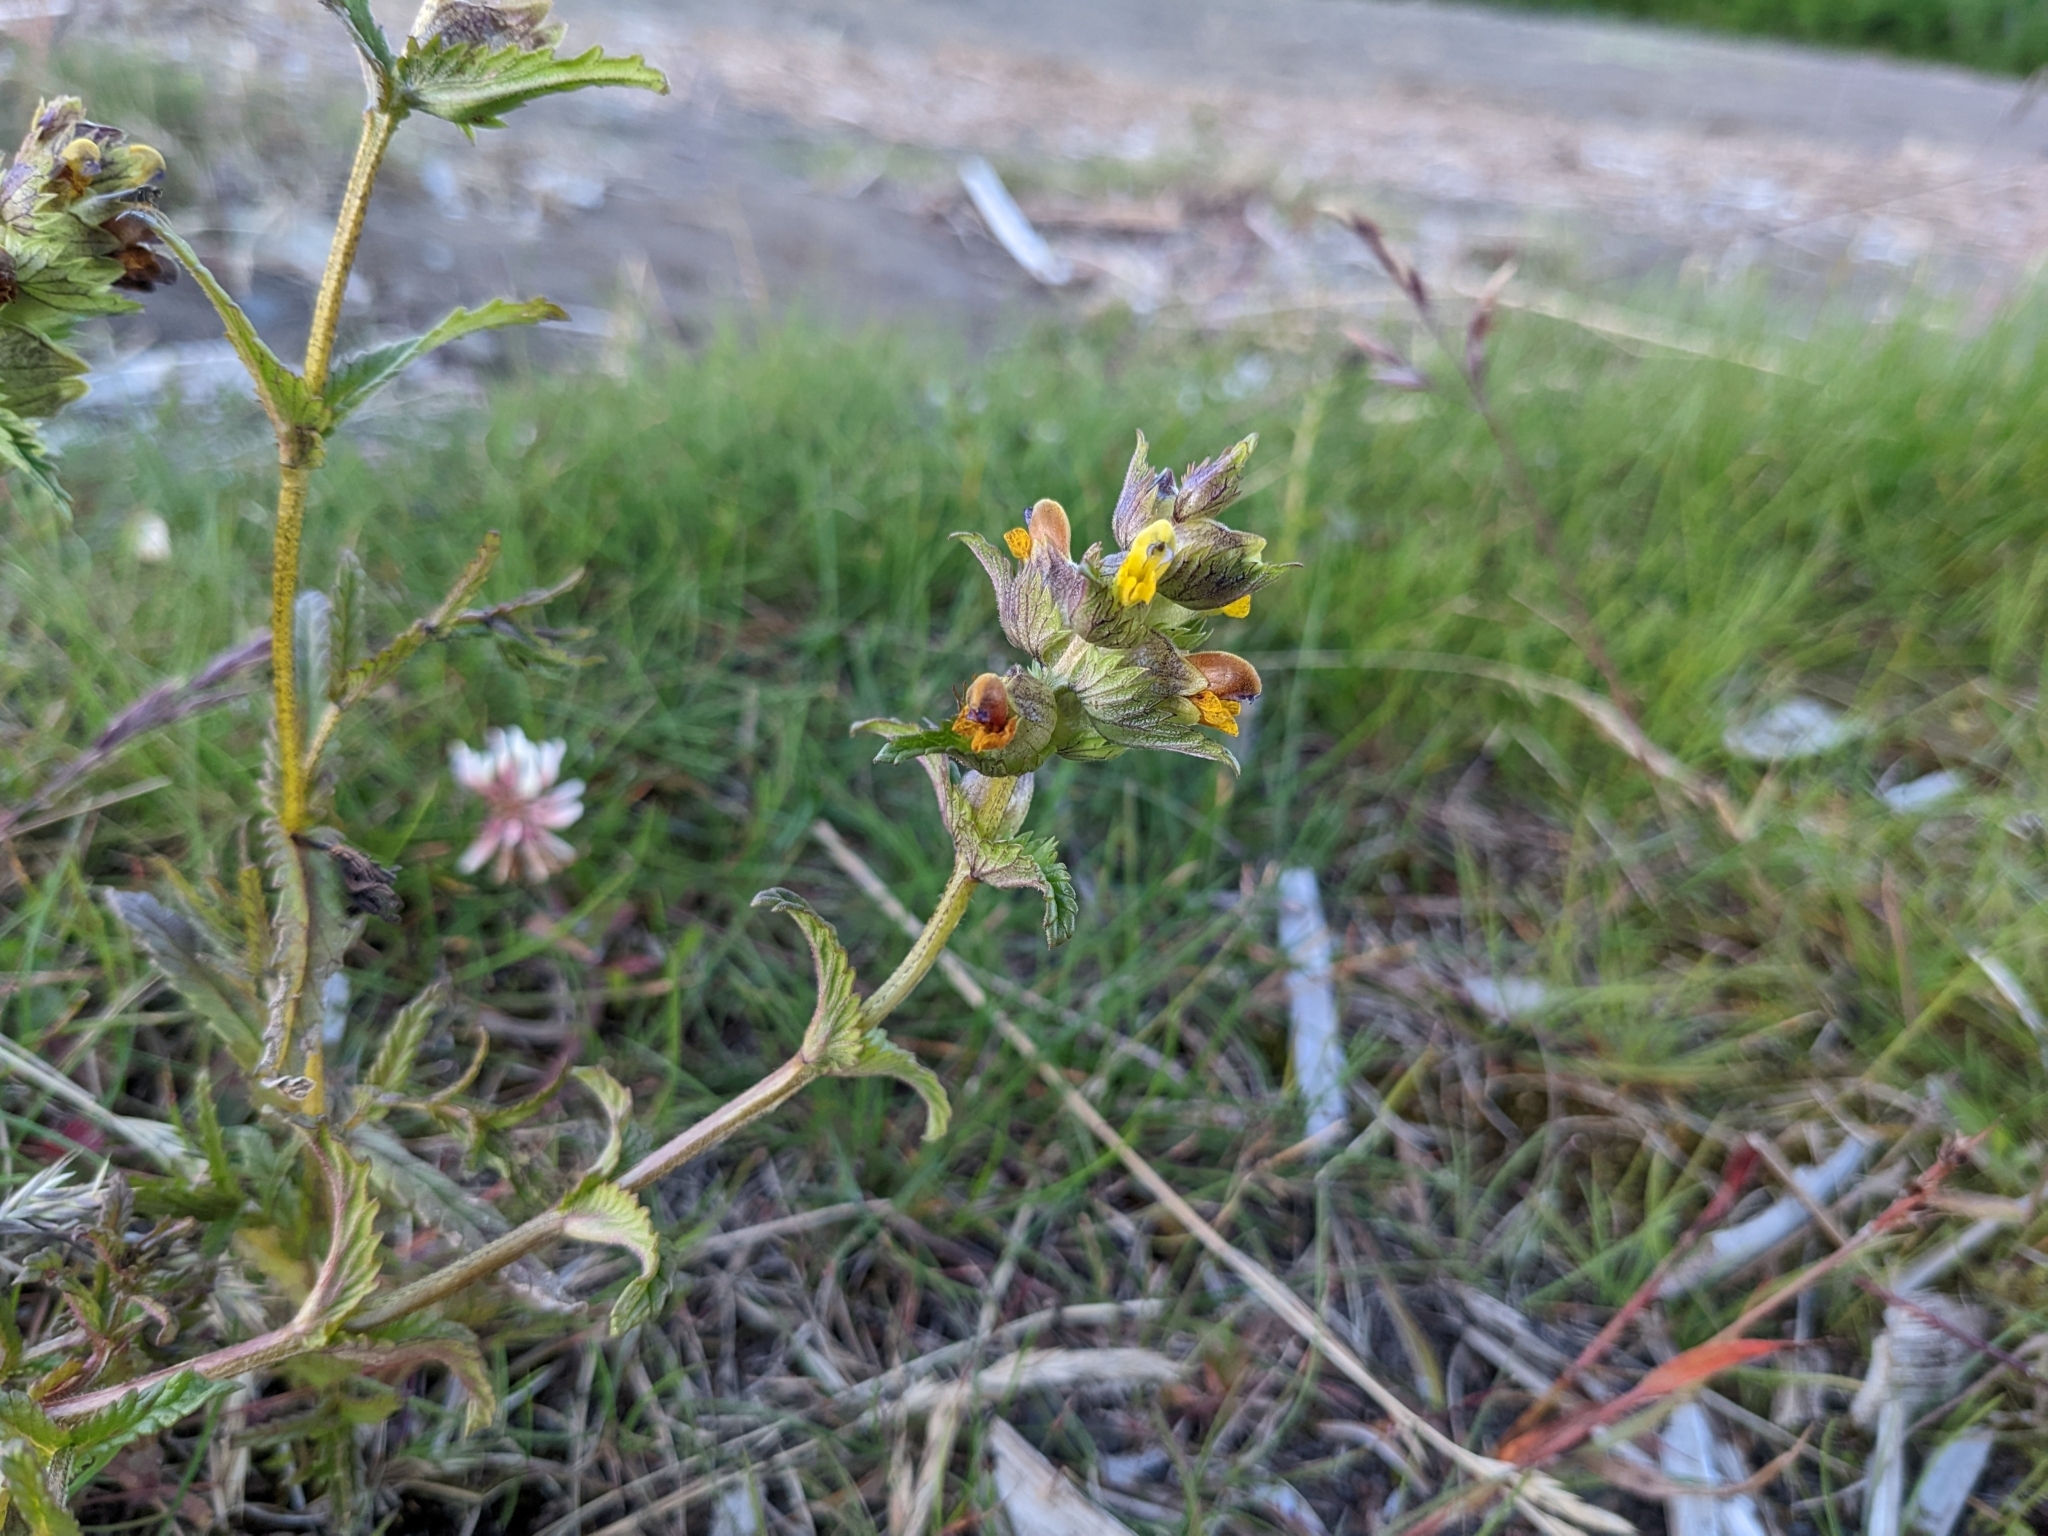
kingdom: Plantae
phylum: Tracheophyta
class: Magnoliopsida
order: Lamiales
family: Orobanchaceae
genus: Rhinanthus
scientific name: Rhinanthus minor
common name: Yellow-rattle
